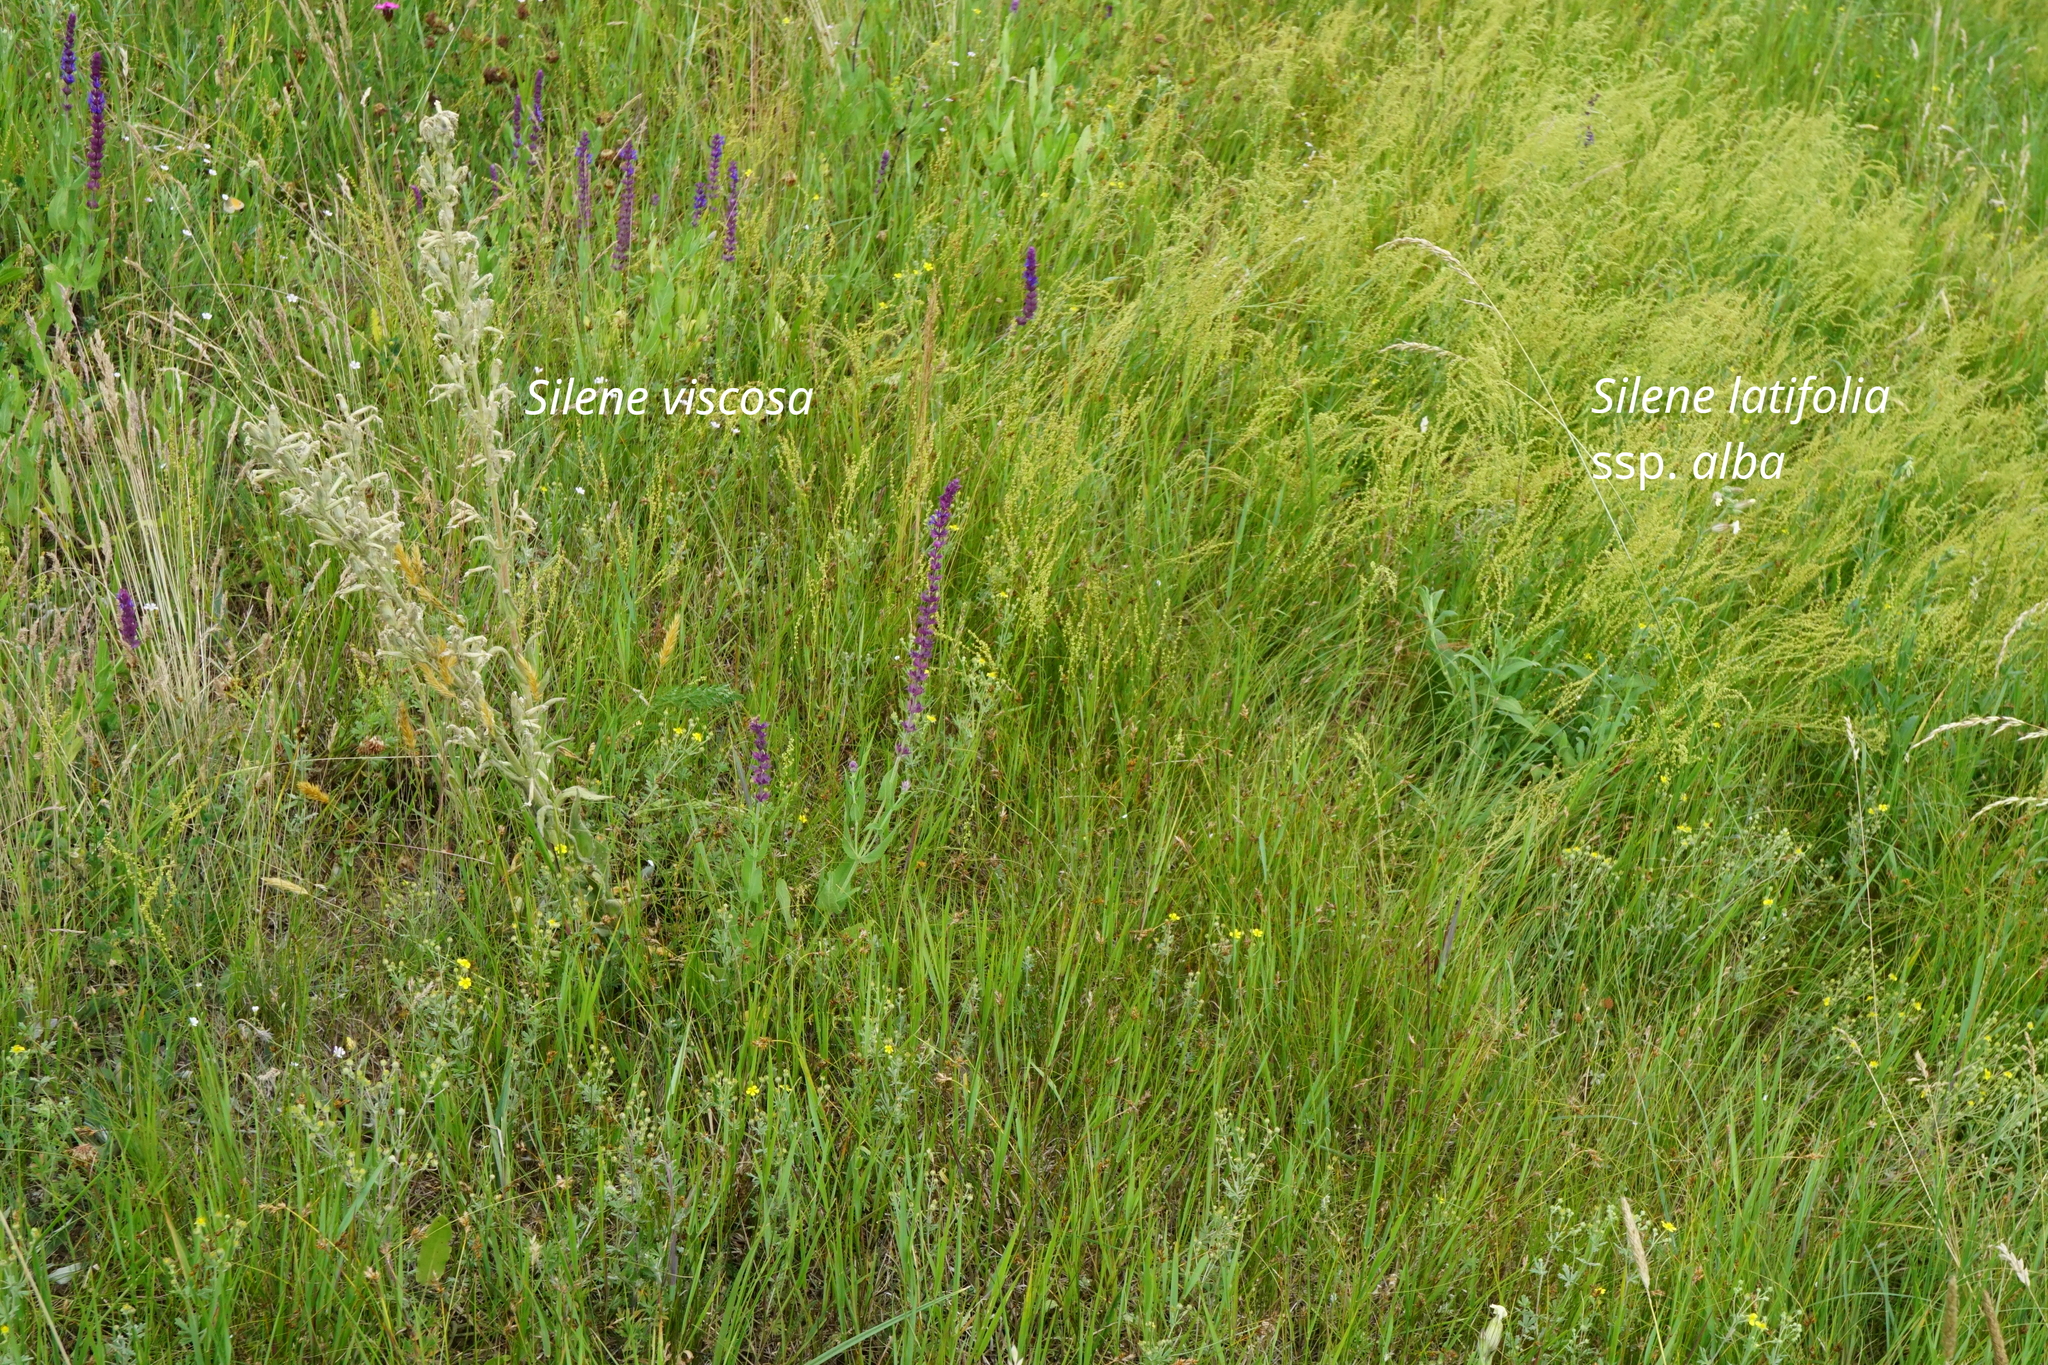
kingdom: Plantae
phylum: Tracheophyta
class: Magnoliopsida
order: Caryophyllales
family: Caryophyllaceae
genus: Silene
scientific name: Silene latifolia
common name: White campion
